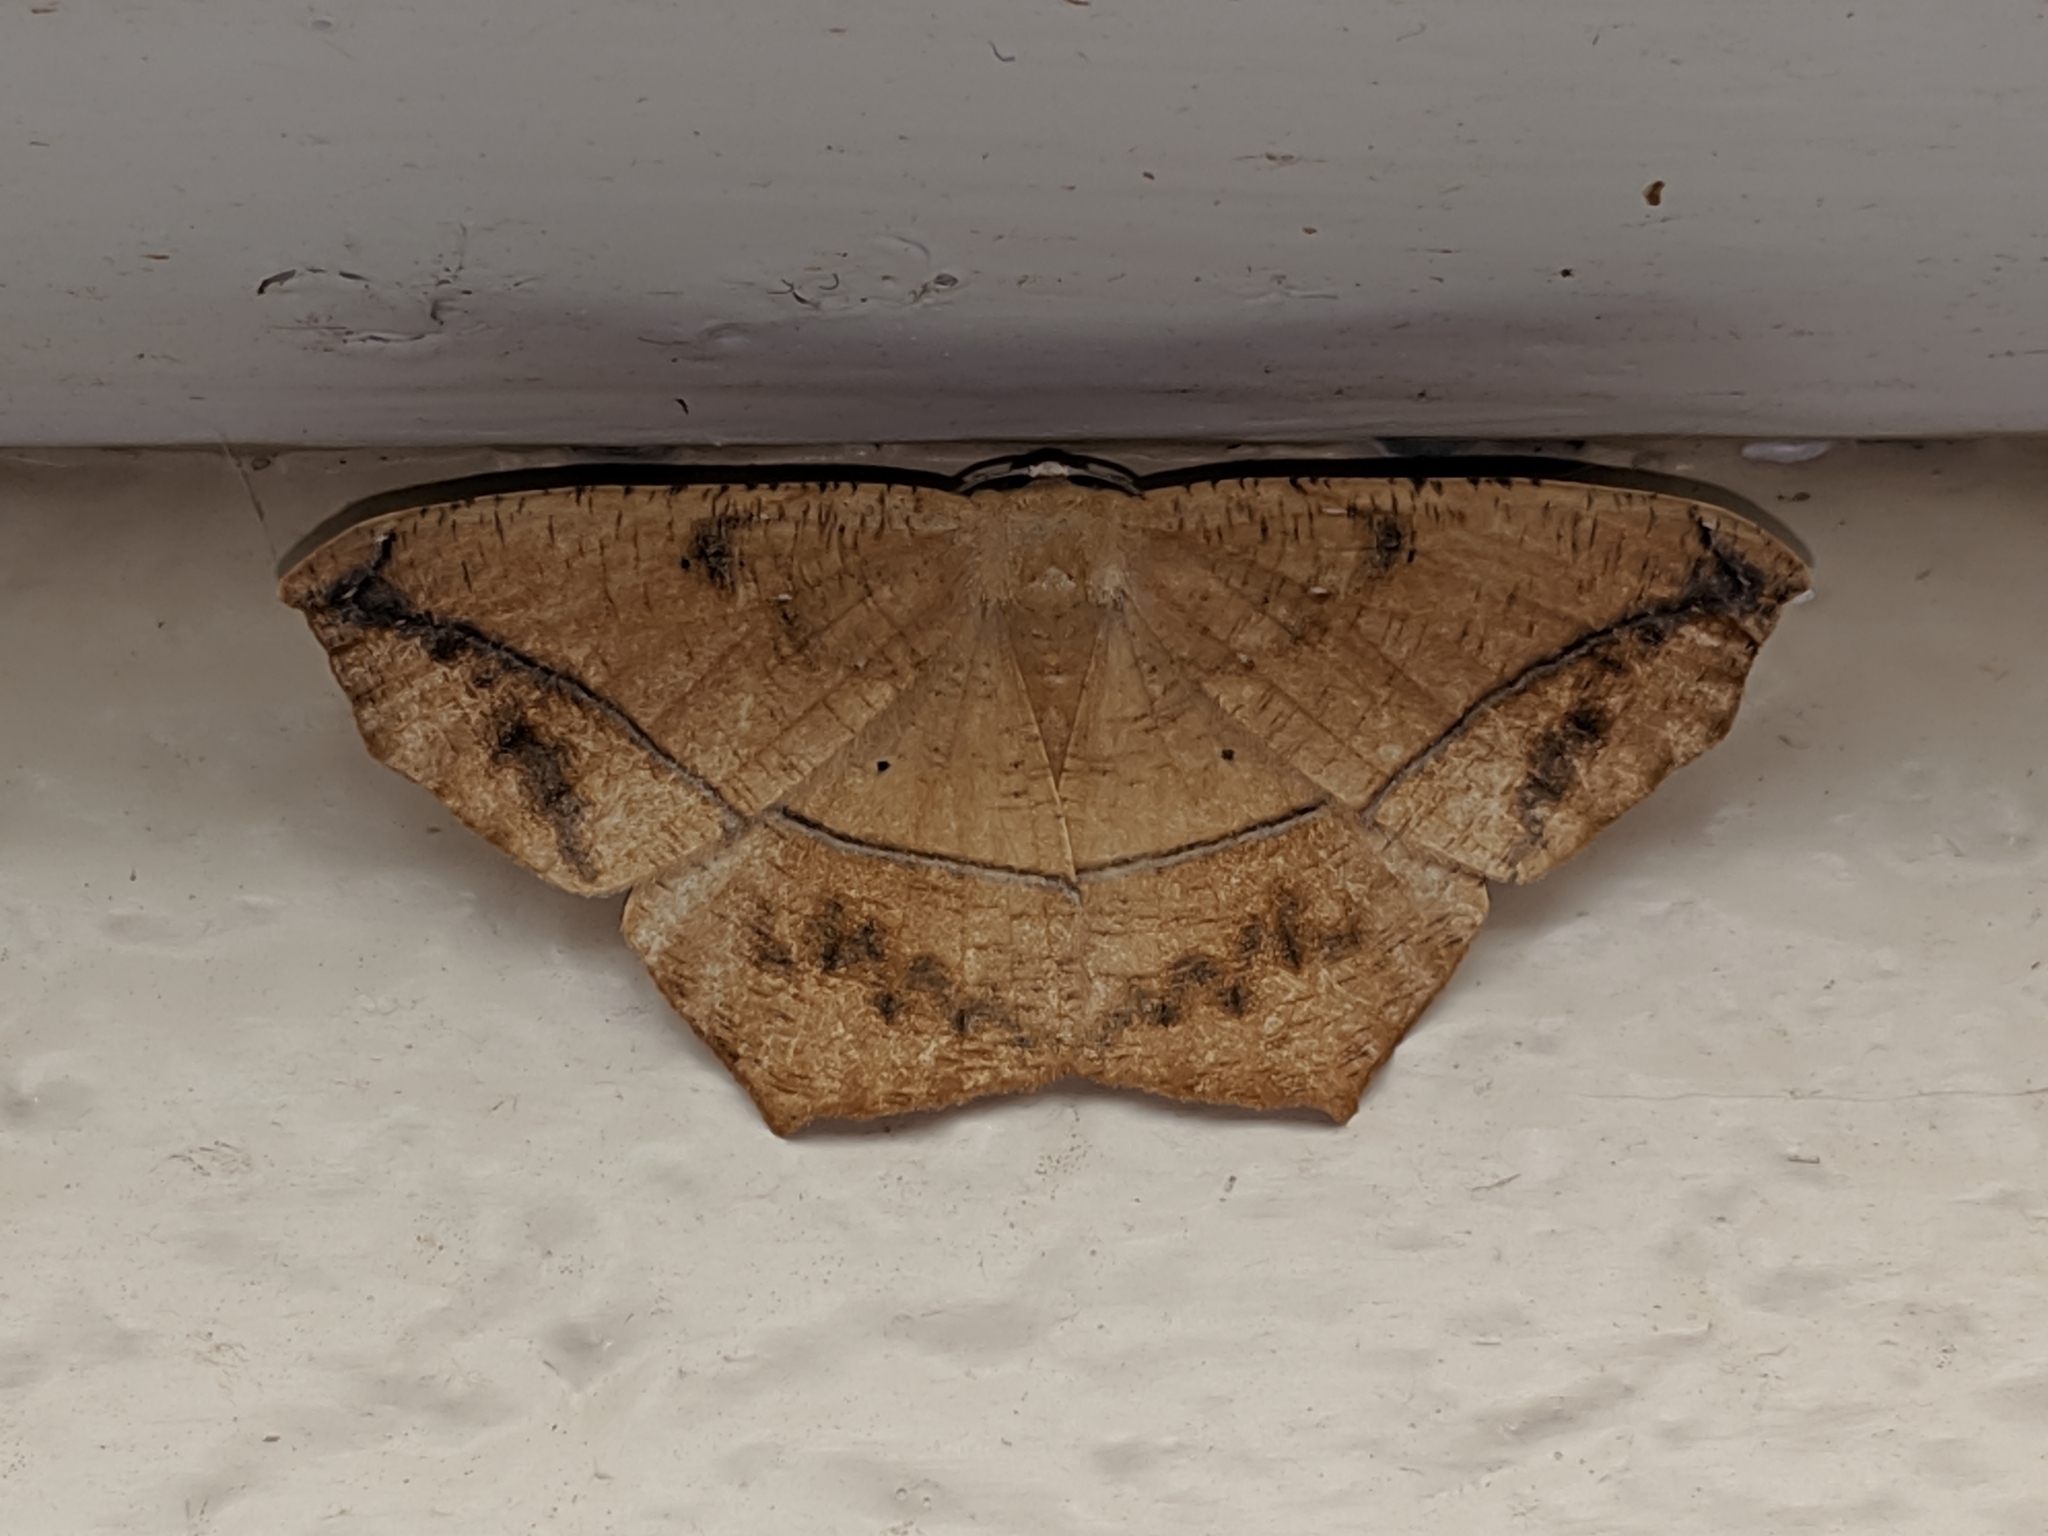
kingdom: Animalia
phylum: Arthropoda
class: Insecta
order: Lepidoptera
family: Geometridae
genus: Prochoerodes
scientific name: Prochoerodes lineola
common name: Large maple spanworm
